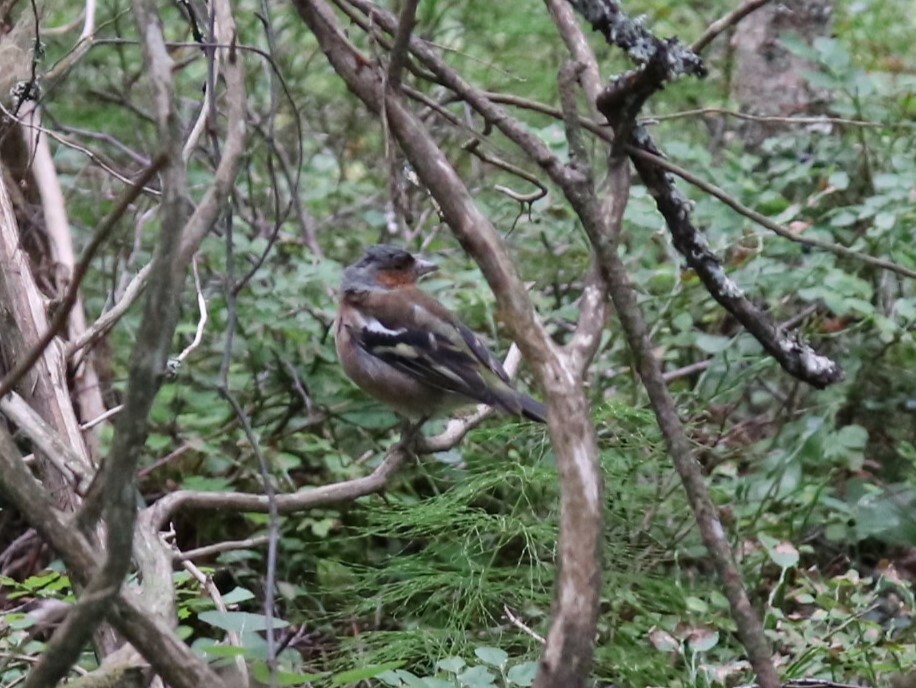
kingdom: Animalia
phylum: Chordata
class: Aves
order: Passeriformes
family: Fringillidae
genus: Fringilla
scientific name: Fringilla coelebs
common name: Common chaffinch
